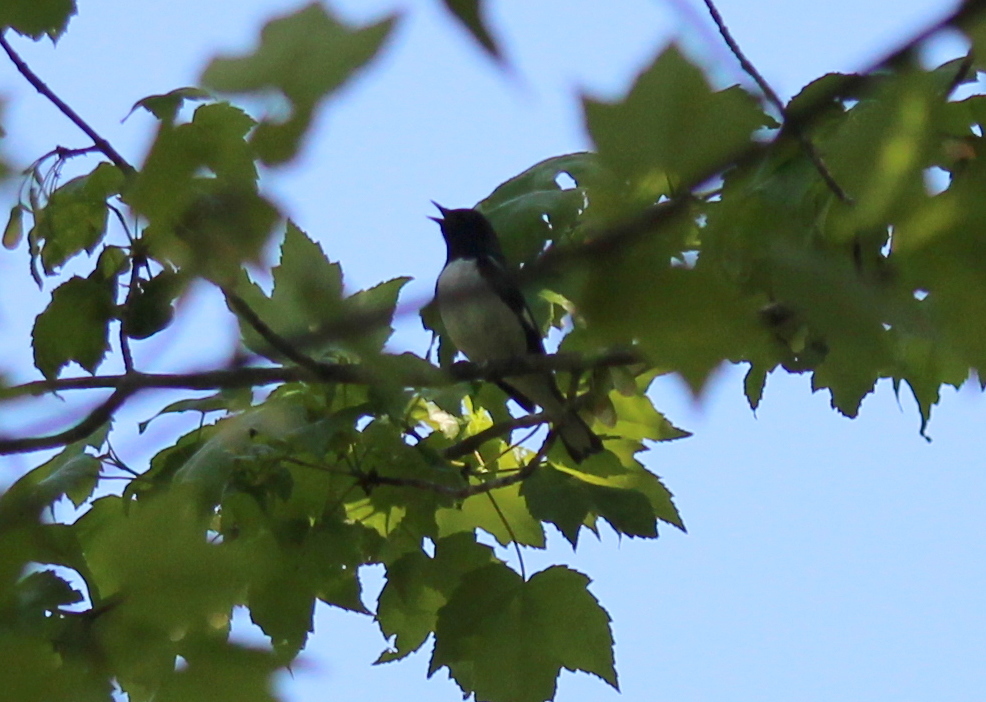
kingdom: Animalia
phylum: Chordata
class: Aves
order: Passeriformes
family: Parulidae
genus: Setophaga
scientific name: Setophaga caerulescens
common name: Black-throated blue warbler
